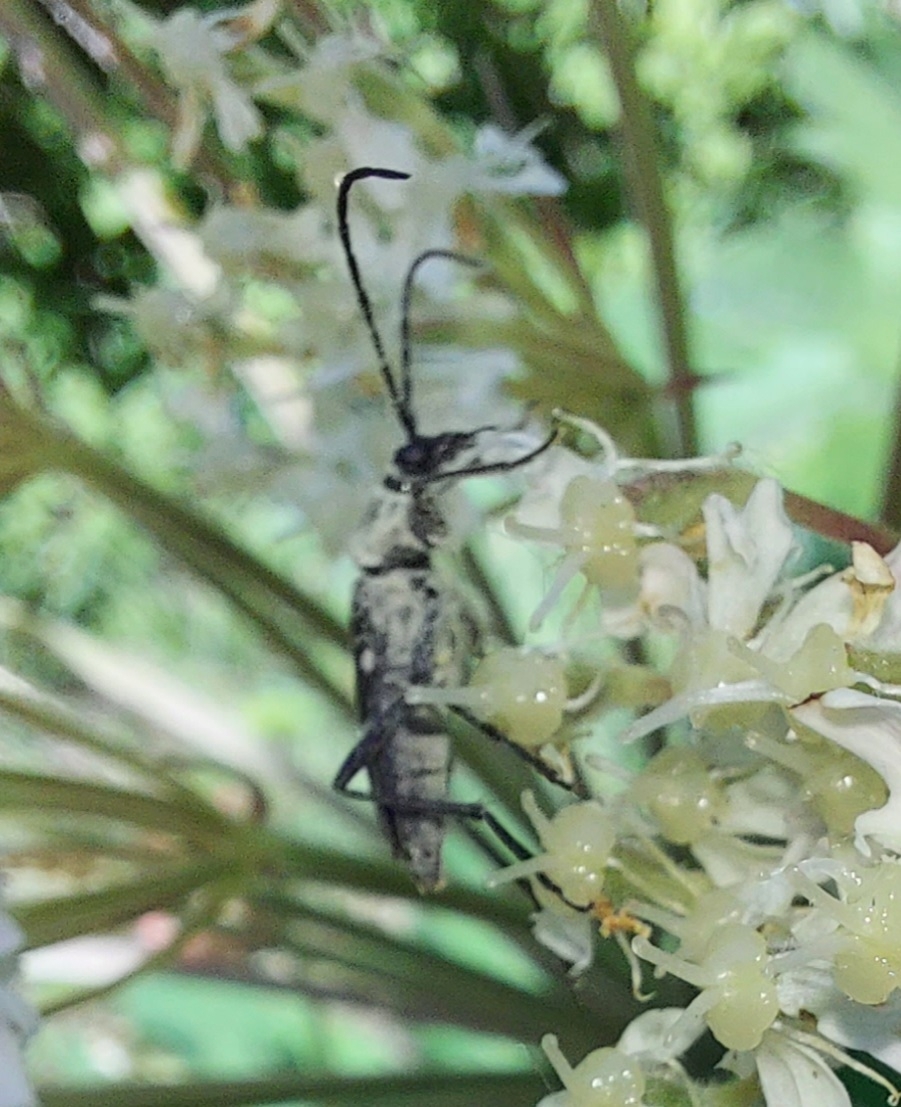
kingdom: Animalia
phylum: Arthropoda
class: Insecta
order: Coleoptera
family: Cerambycidae
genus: Leptura
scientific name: Leptura duodecimguttata
